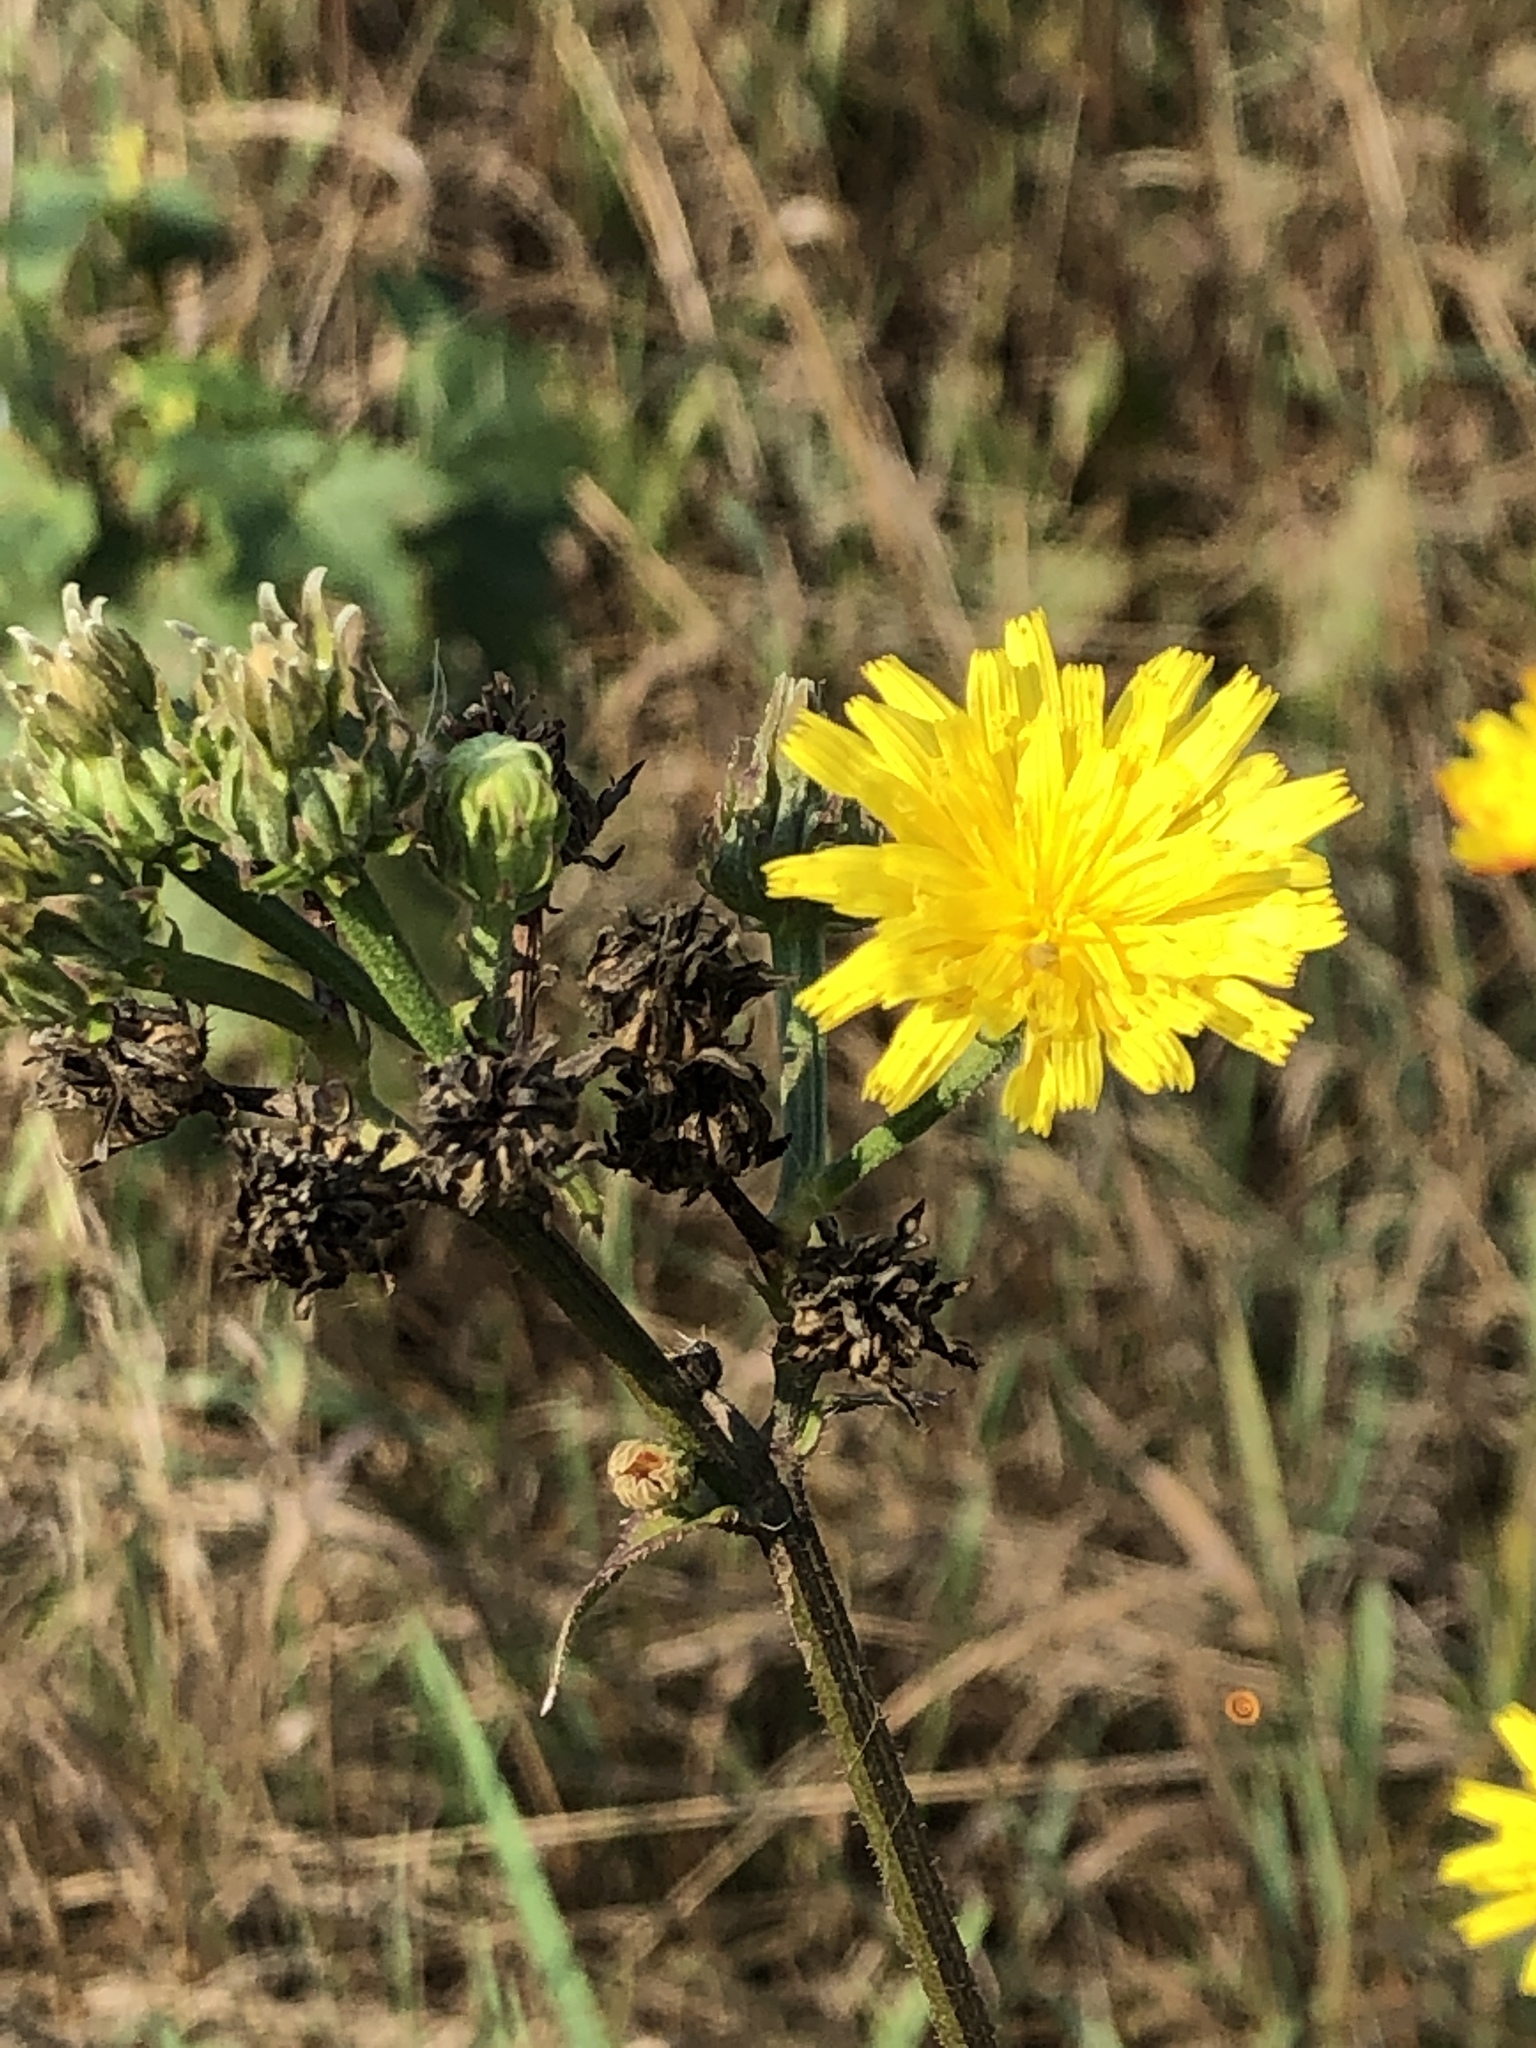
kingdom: Plantae
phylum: Tracheophyta
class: Magnoliopsida
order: Asterales
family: Asteraceae
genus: Picris
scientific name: Picris hieracioides
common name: Hawkweed oxtongue
